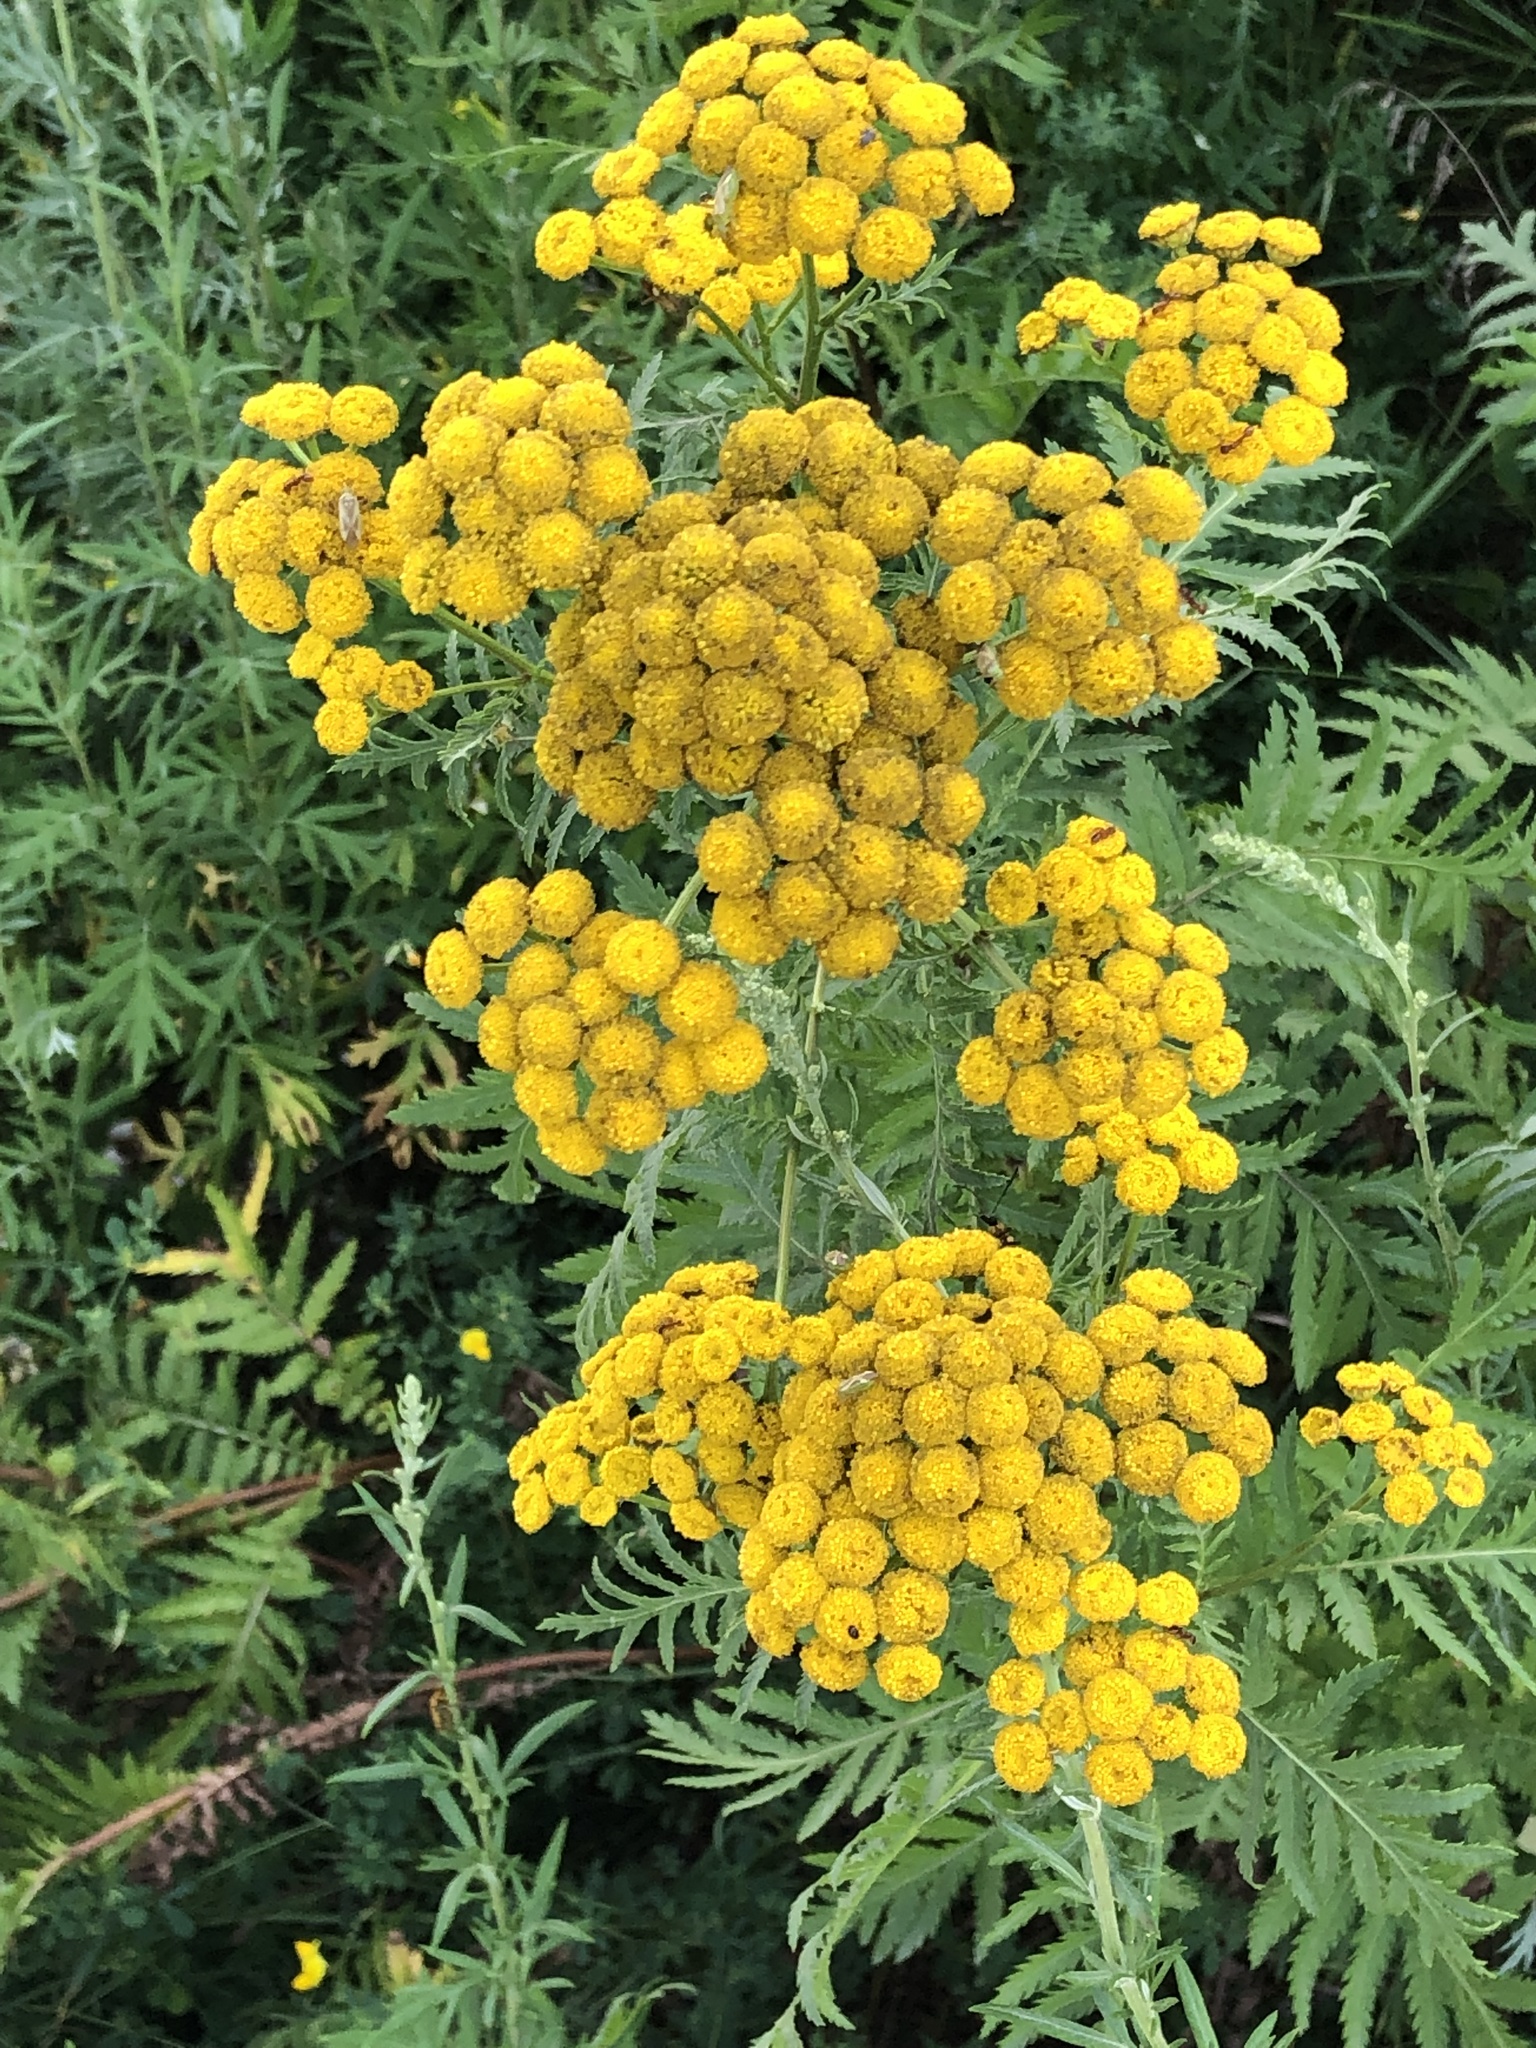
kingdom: Plantae
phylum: Tracheophyta
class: Magnoliopsida
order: Asterales
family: Asteraceae
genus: Tanacetum
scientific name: Tanacetum vulgare
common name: Common tansy
